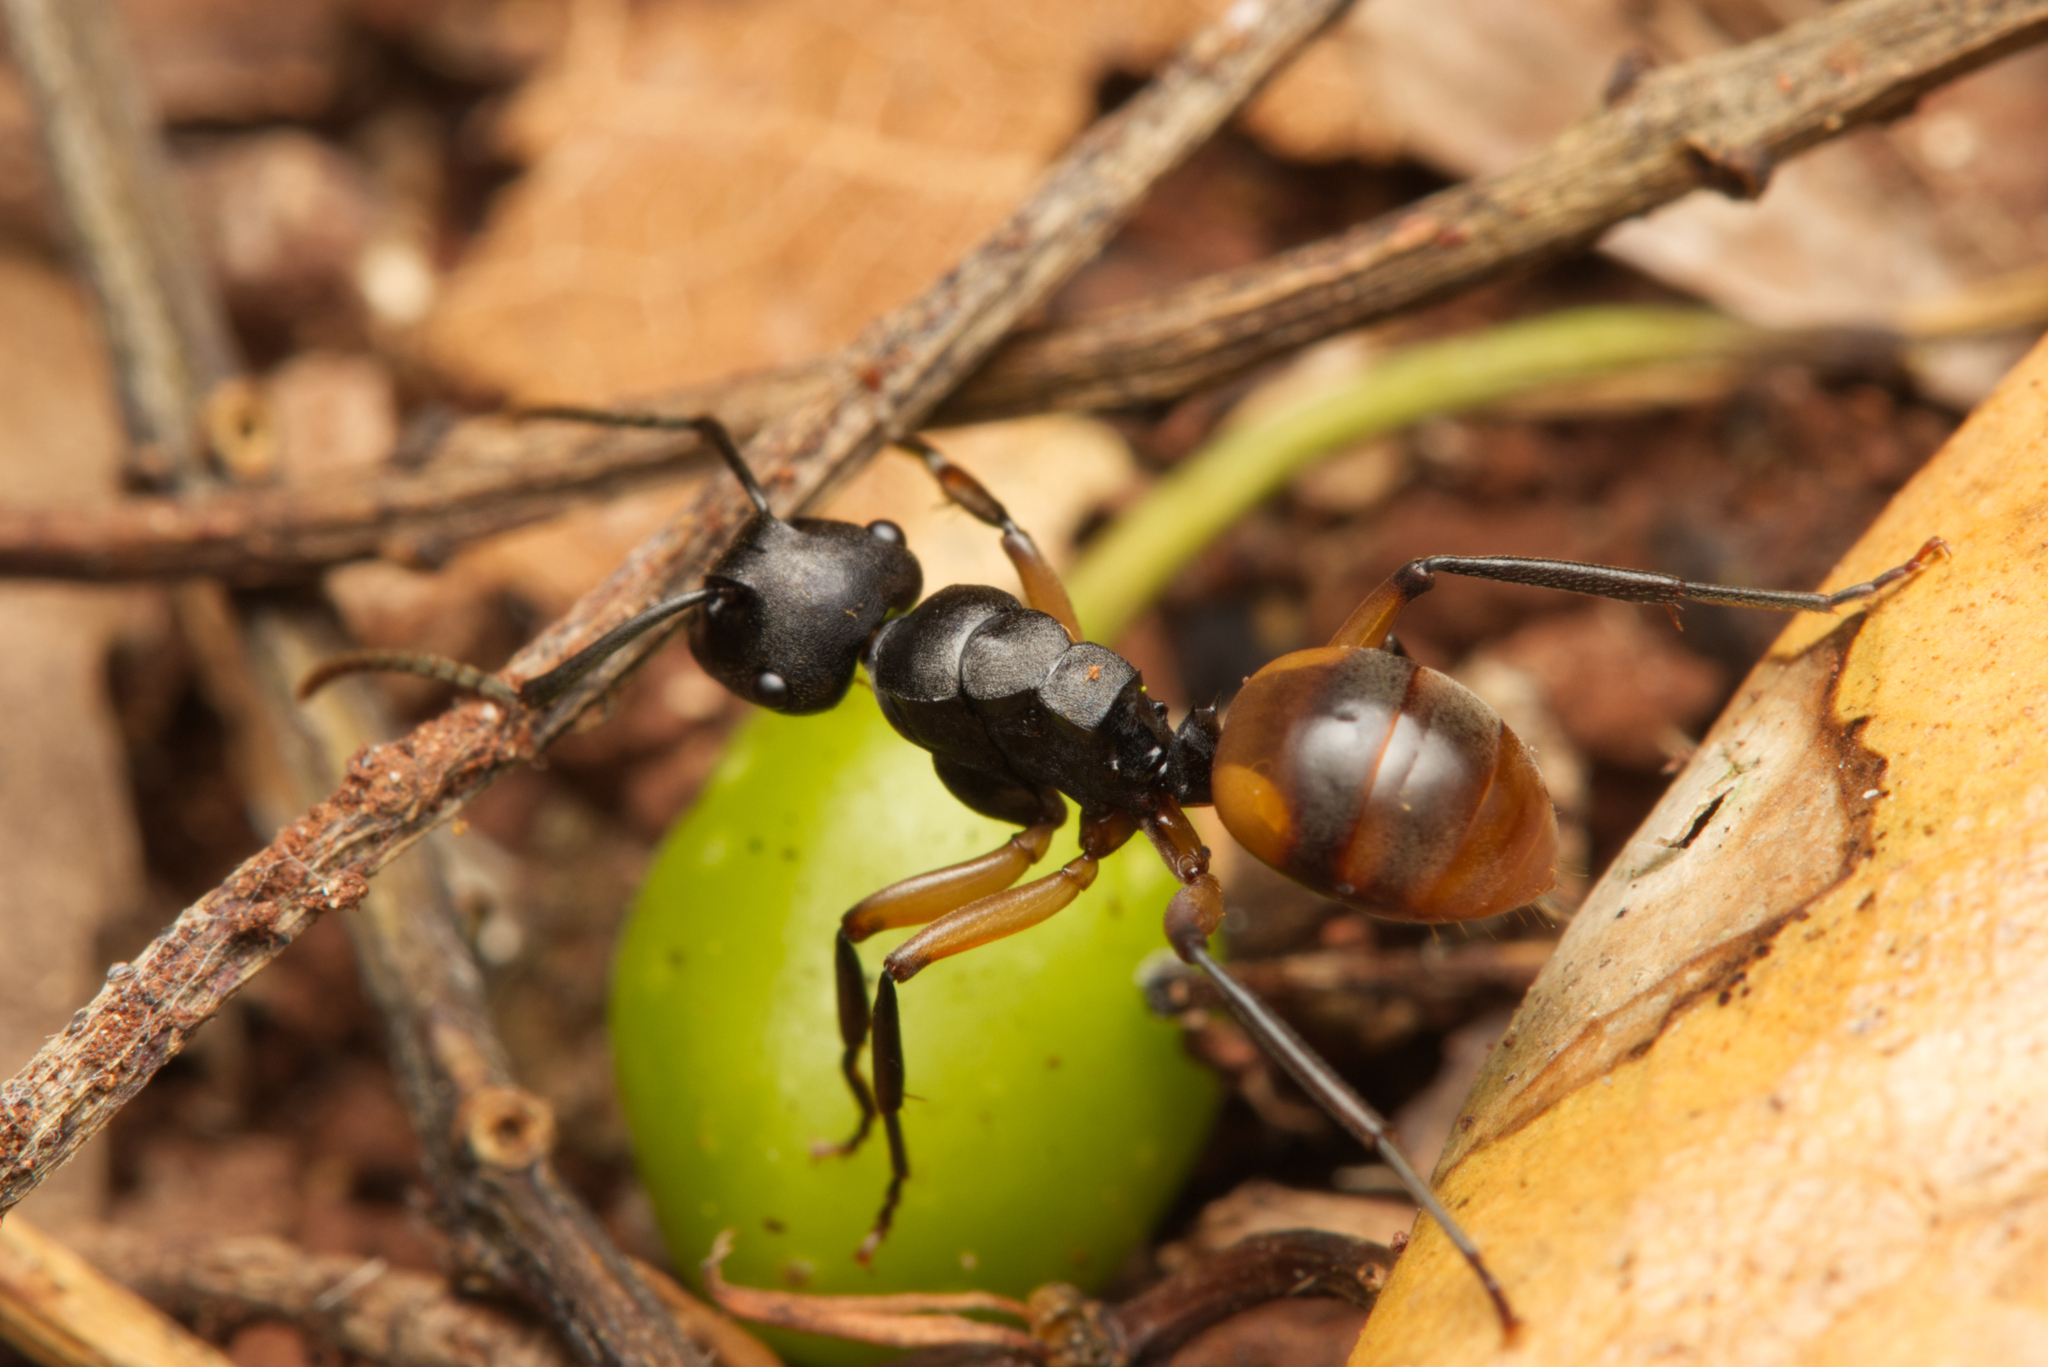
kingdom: Animalia
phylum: Arthropoda
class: Insecta
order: Hymenoptera
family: Formicidae
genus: Polyrhachis
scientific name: Polyrhachis maculata
